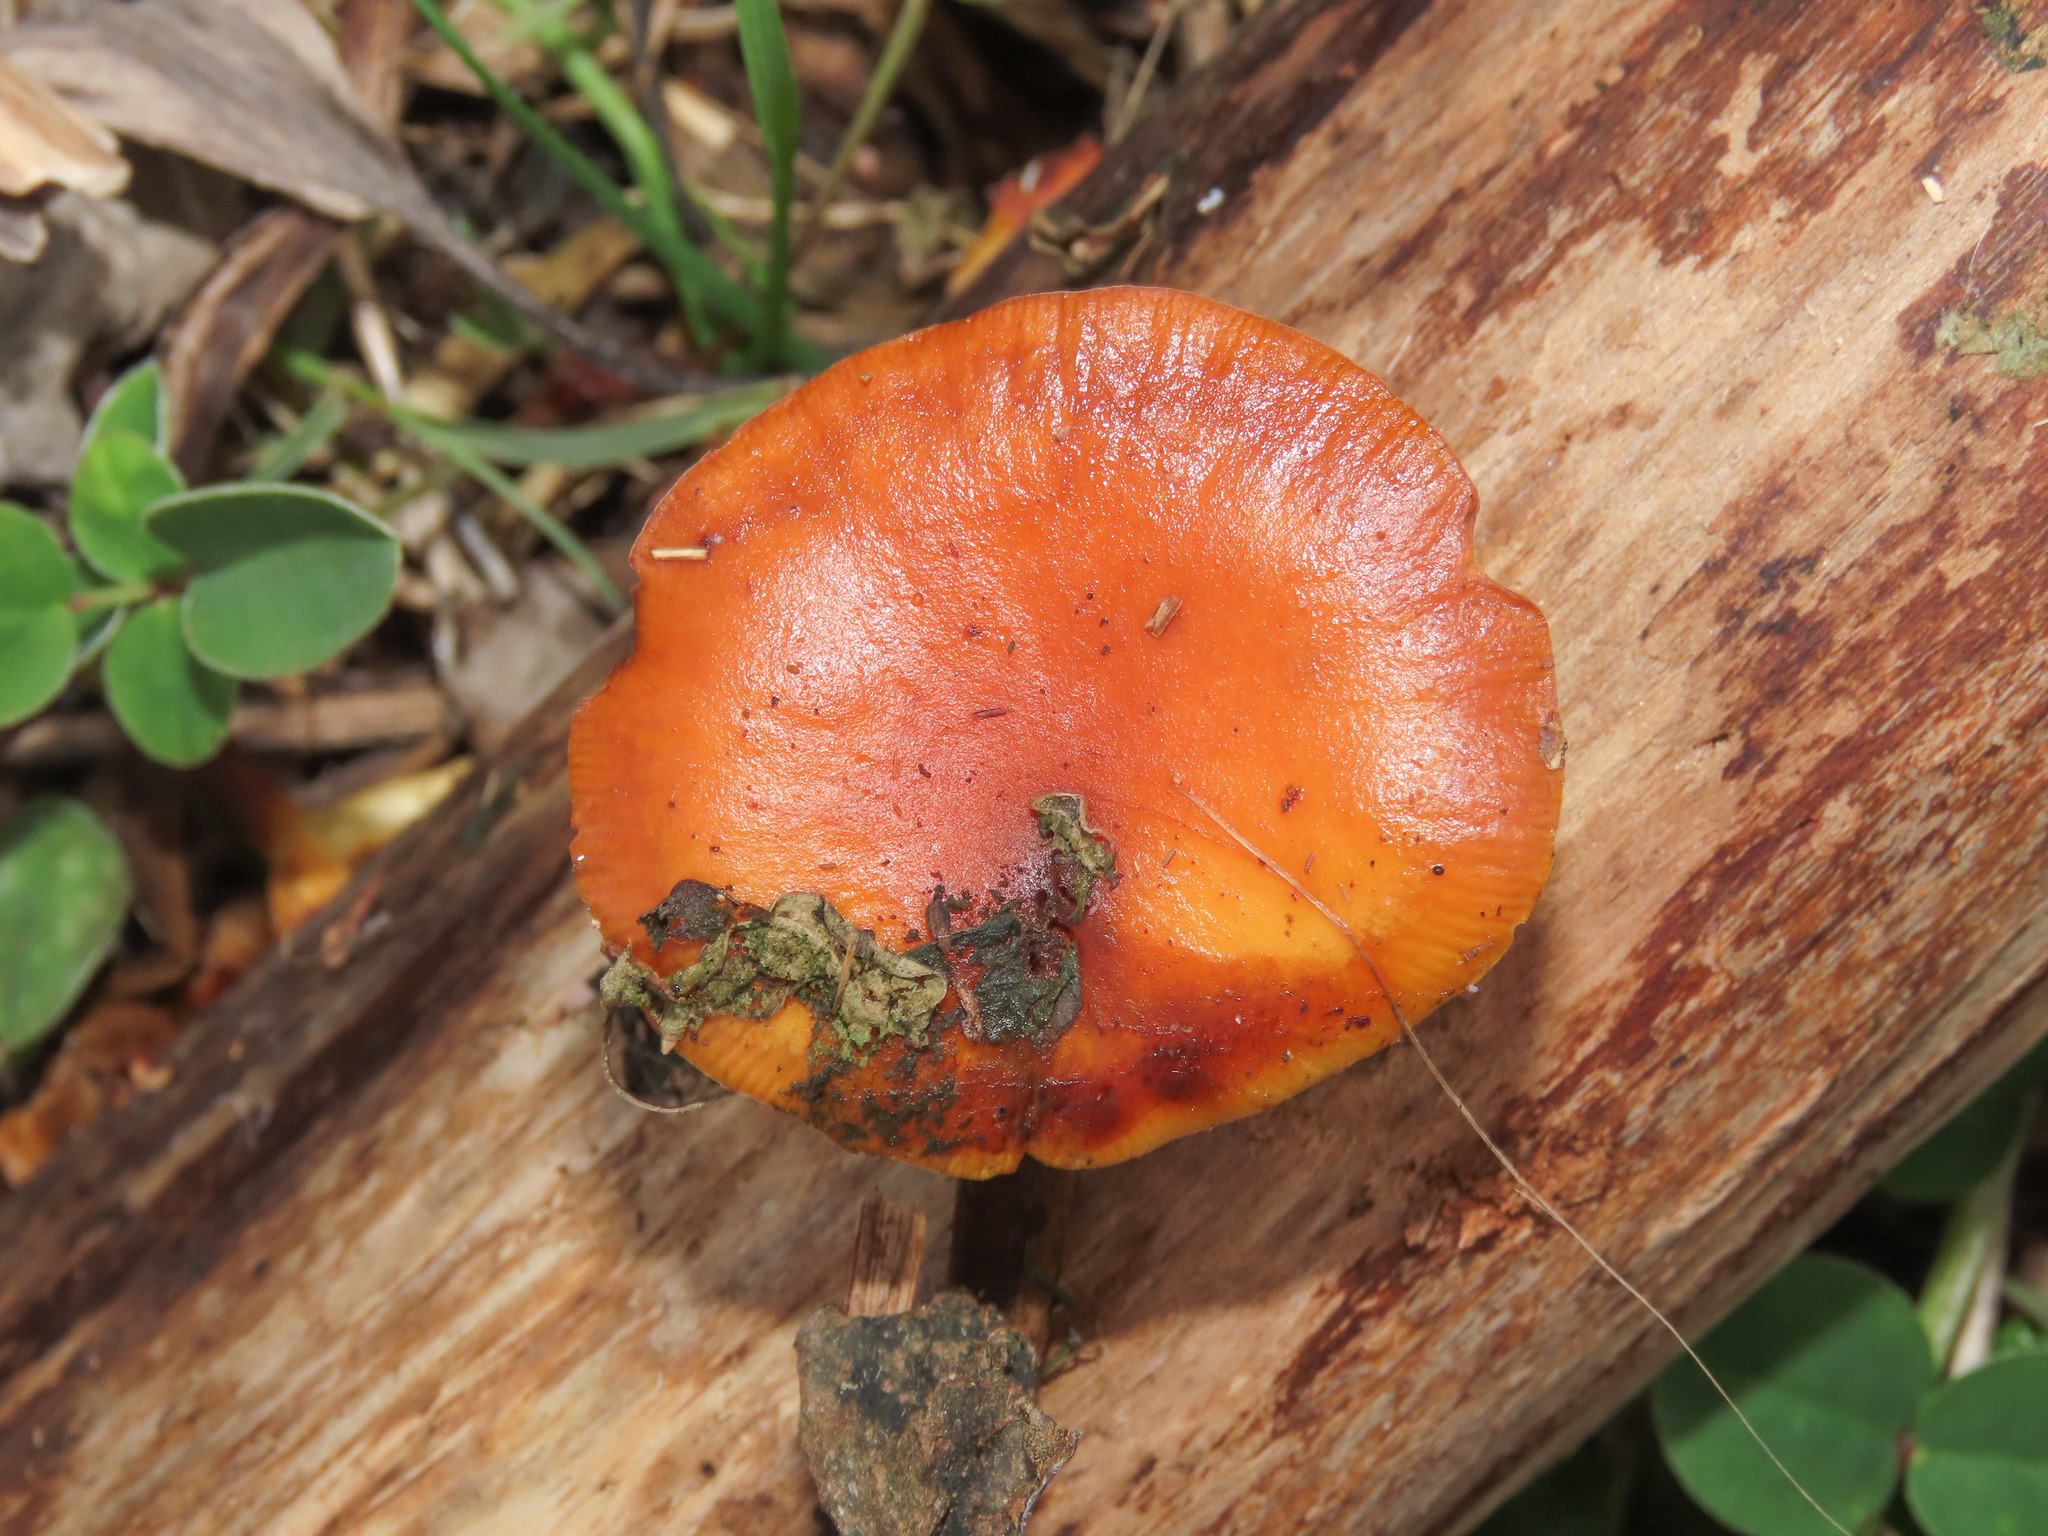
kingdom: Fungi
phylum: Basidiomycota
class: Agaricomycetes
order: Agaricales
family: Physalacriaceae
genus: Flammulina
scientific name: Flammulina
